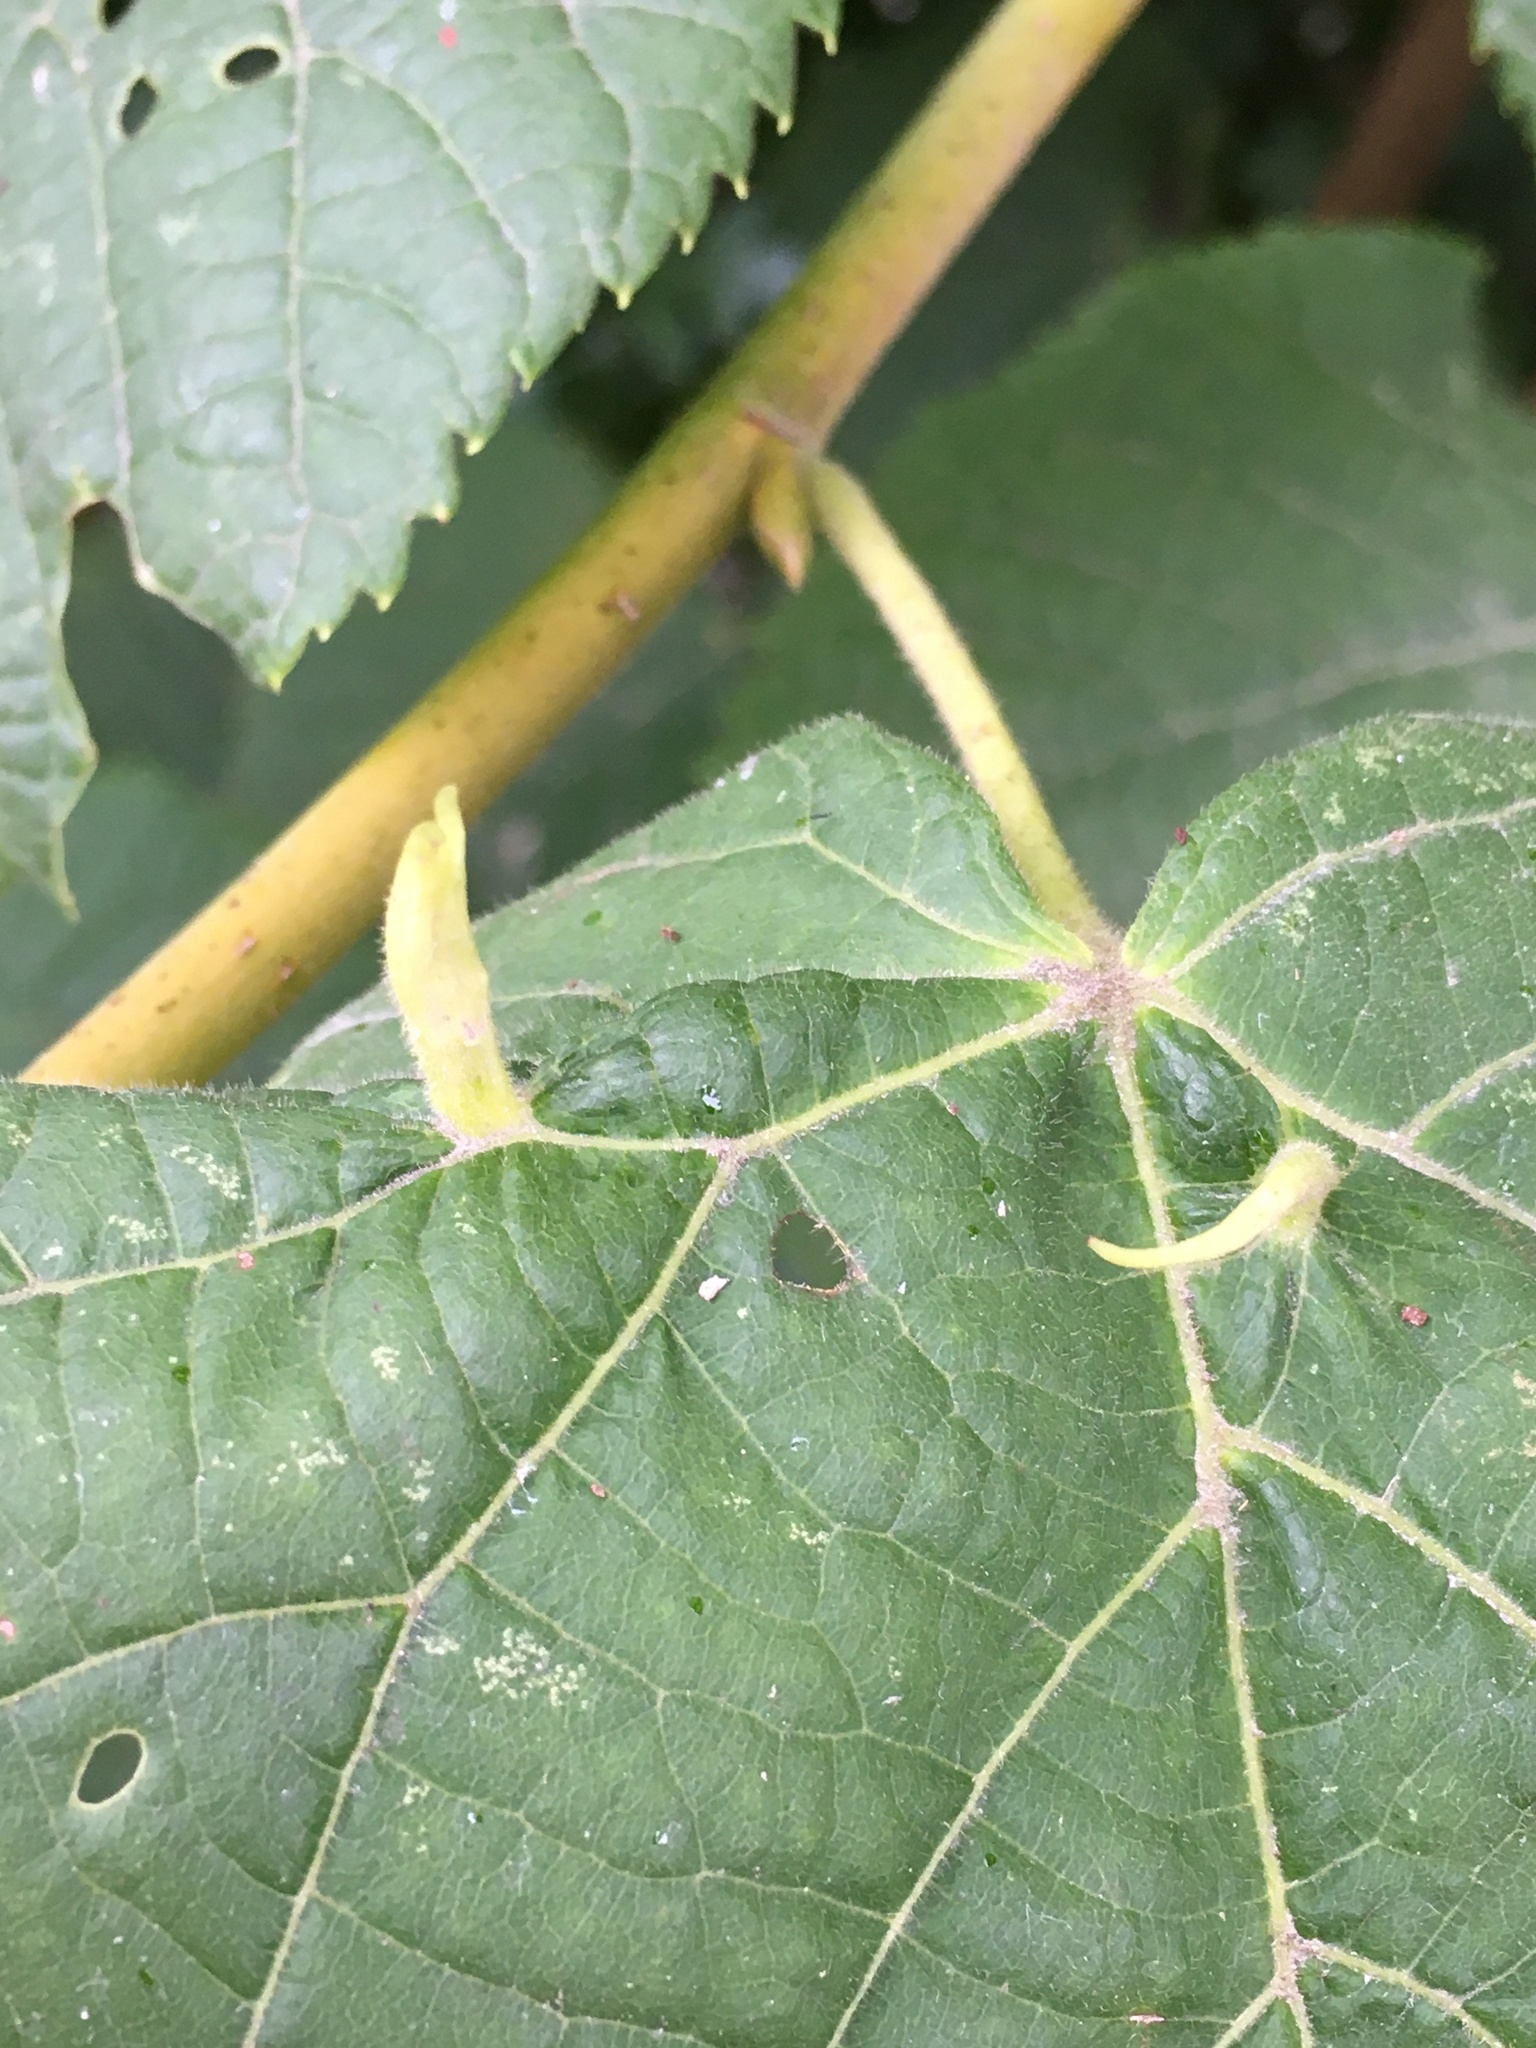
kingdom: Animalia
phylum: Arthropoda
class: Arachnida
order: Trombidiformes
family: Eriophyidae
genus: Eriophyes
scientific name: Eriophyes tiliae
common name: Red nail gall mite
